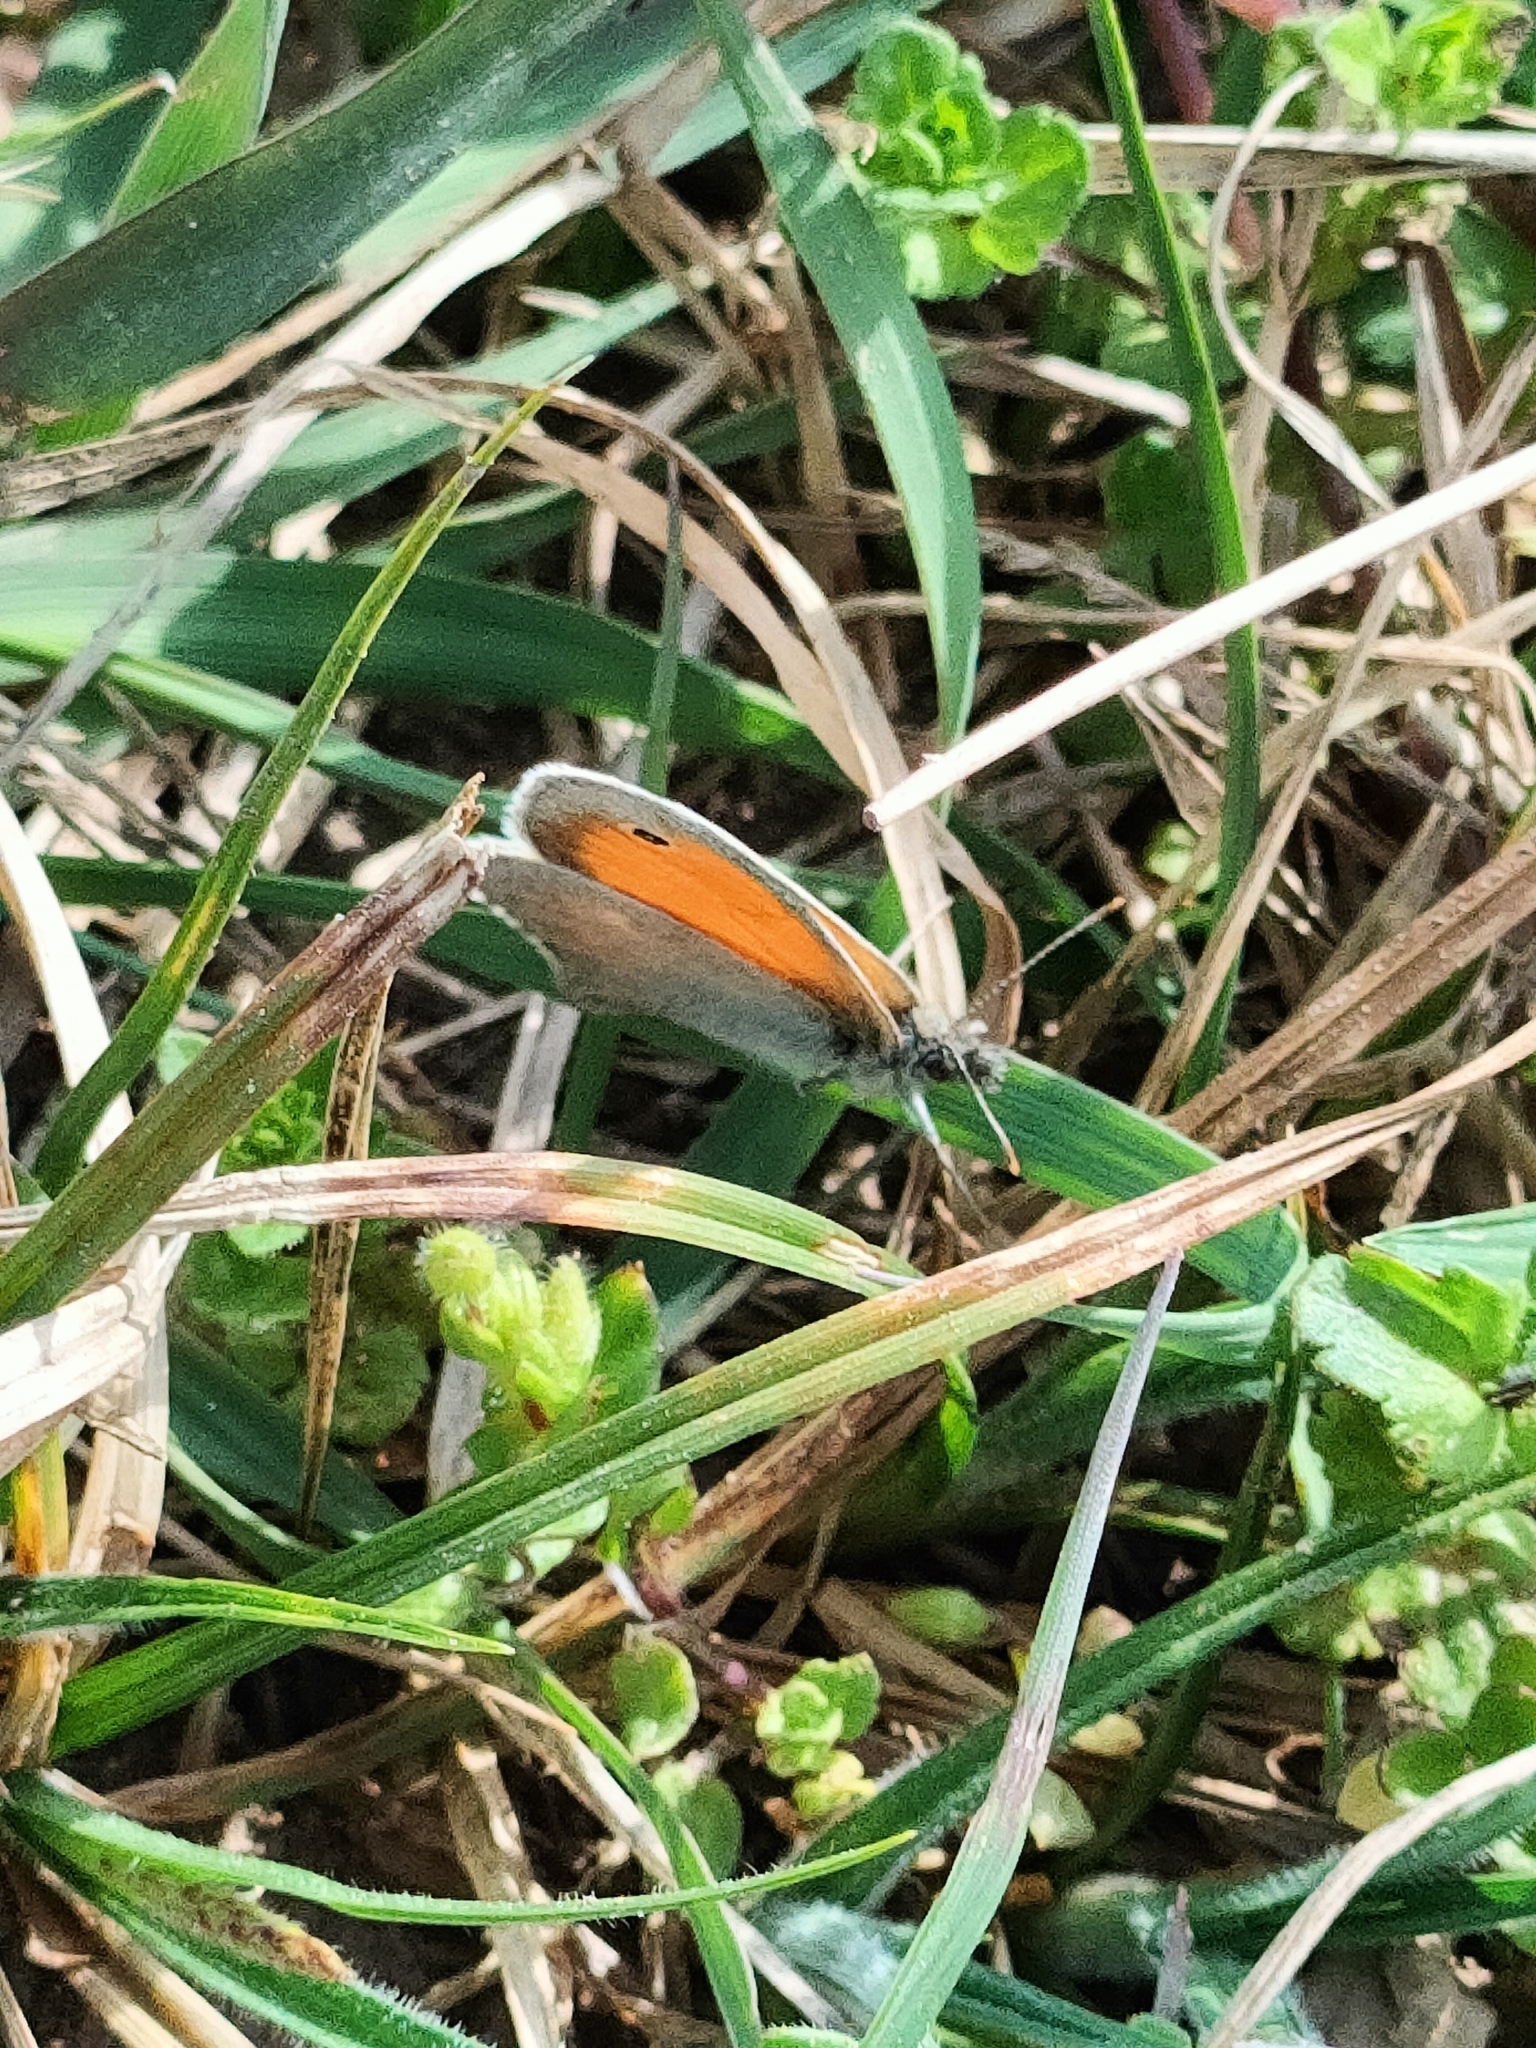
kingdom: Animalia
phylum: Arthropoda
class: Insecta
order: Lepidoptera
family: Nymphalidae
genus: Coenonympha
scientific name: Coenonympha pamphilus
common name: Small heath
